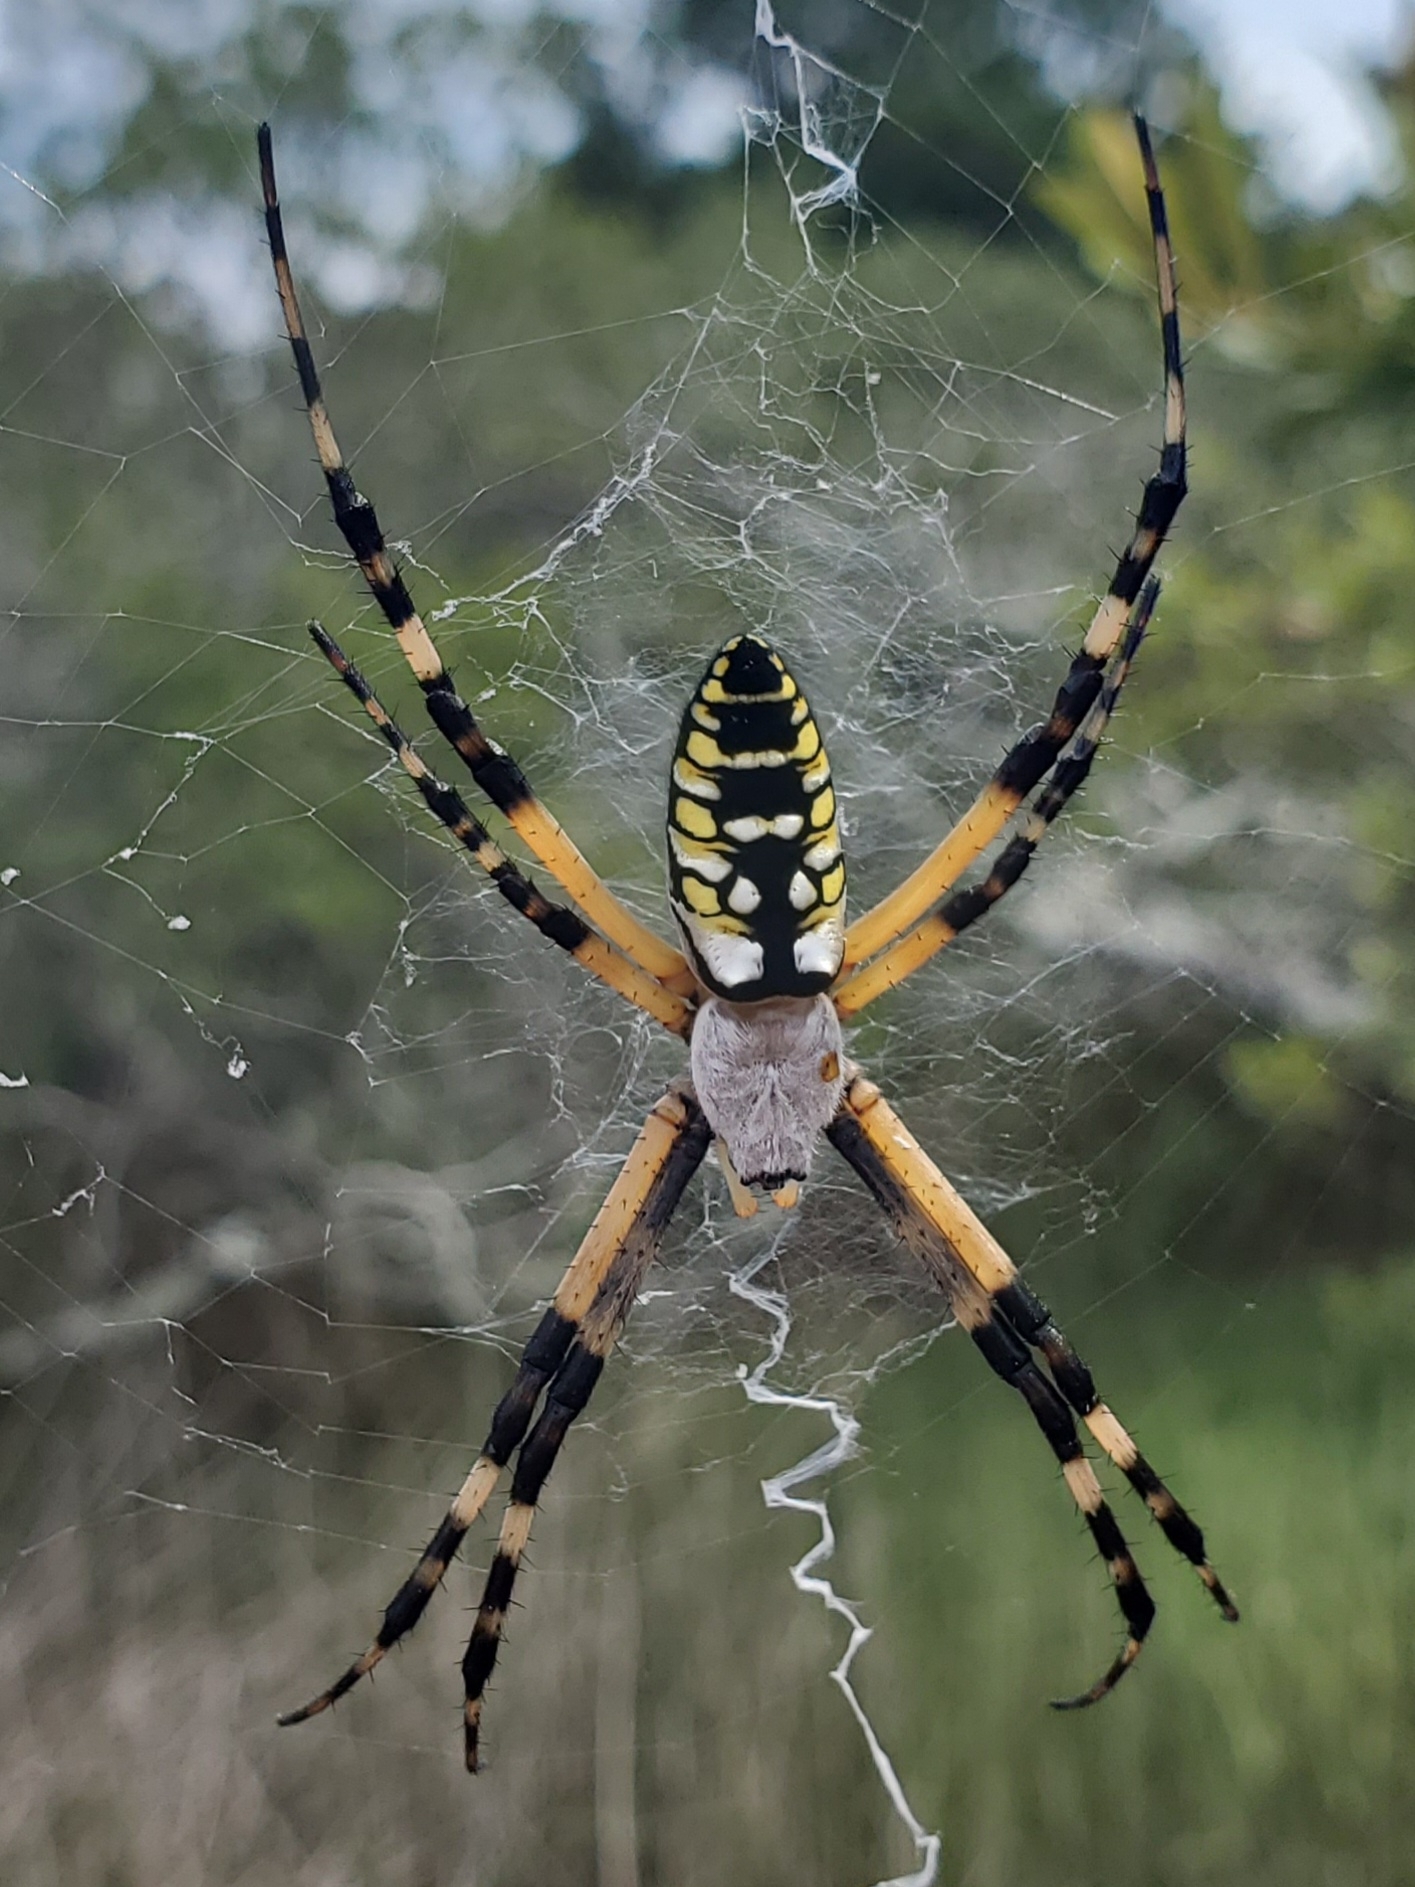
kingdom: Animalia
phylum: Arthropoda
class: Arachnida
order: Araneae
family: Araneidae
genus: Argiope
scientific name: Argiope aurantia
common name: Orb weavers
